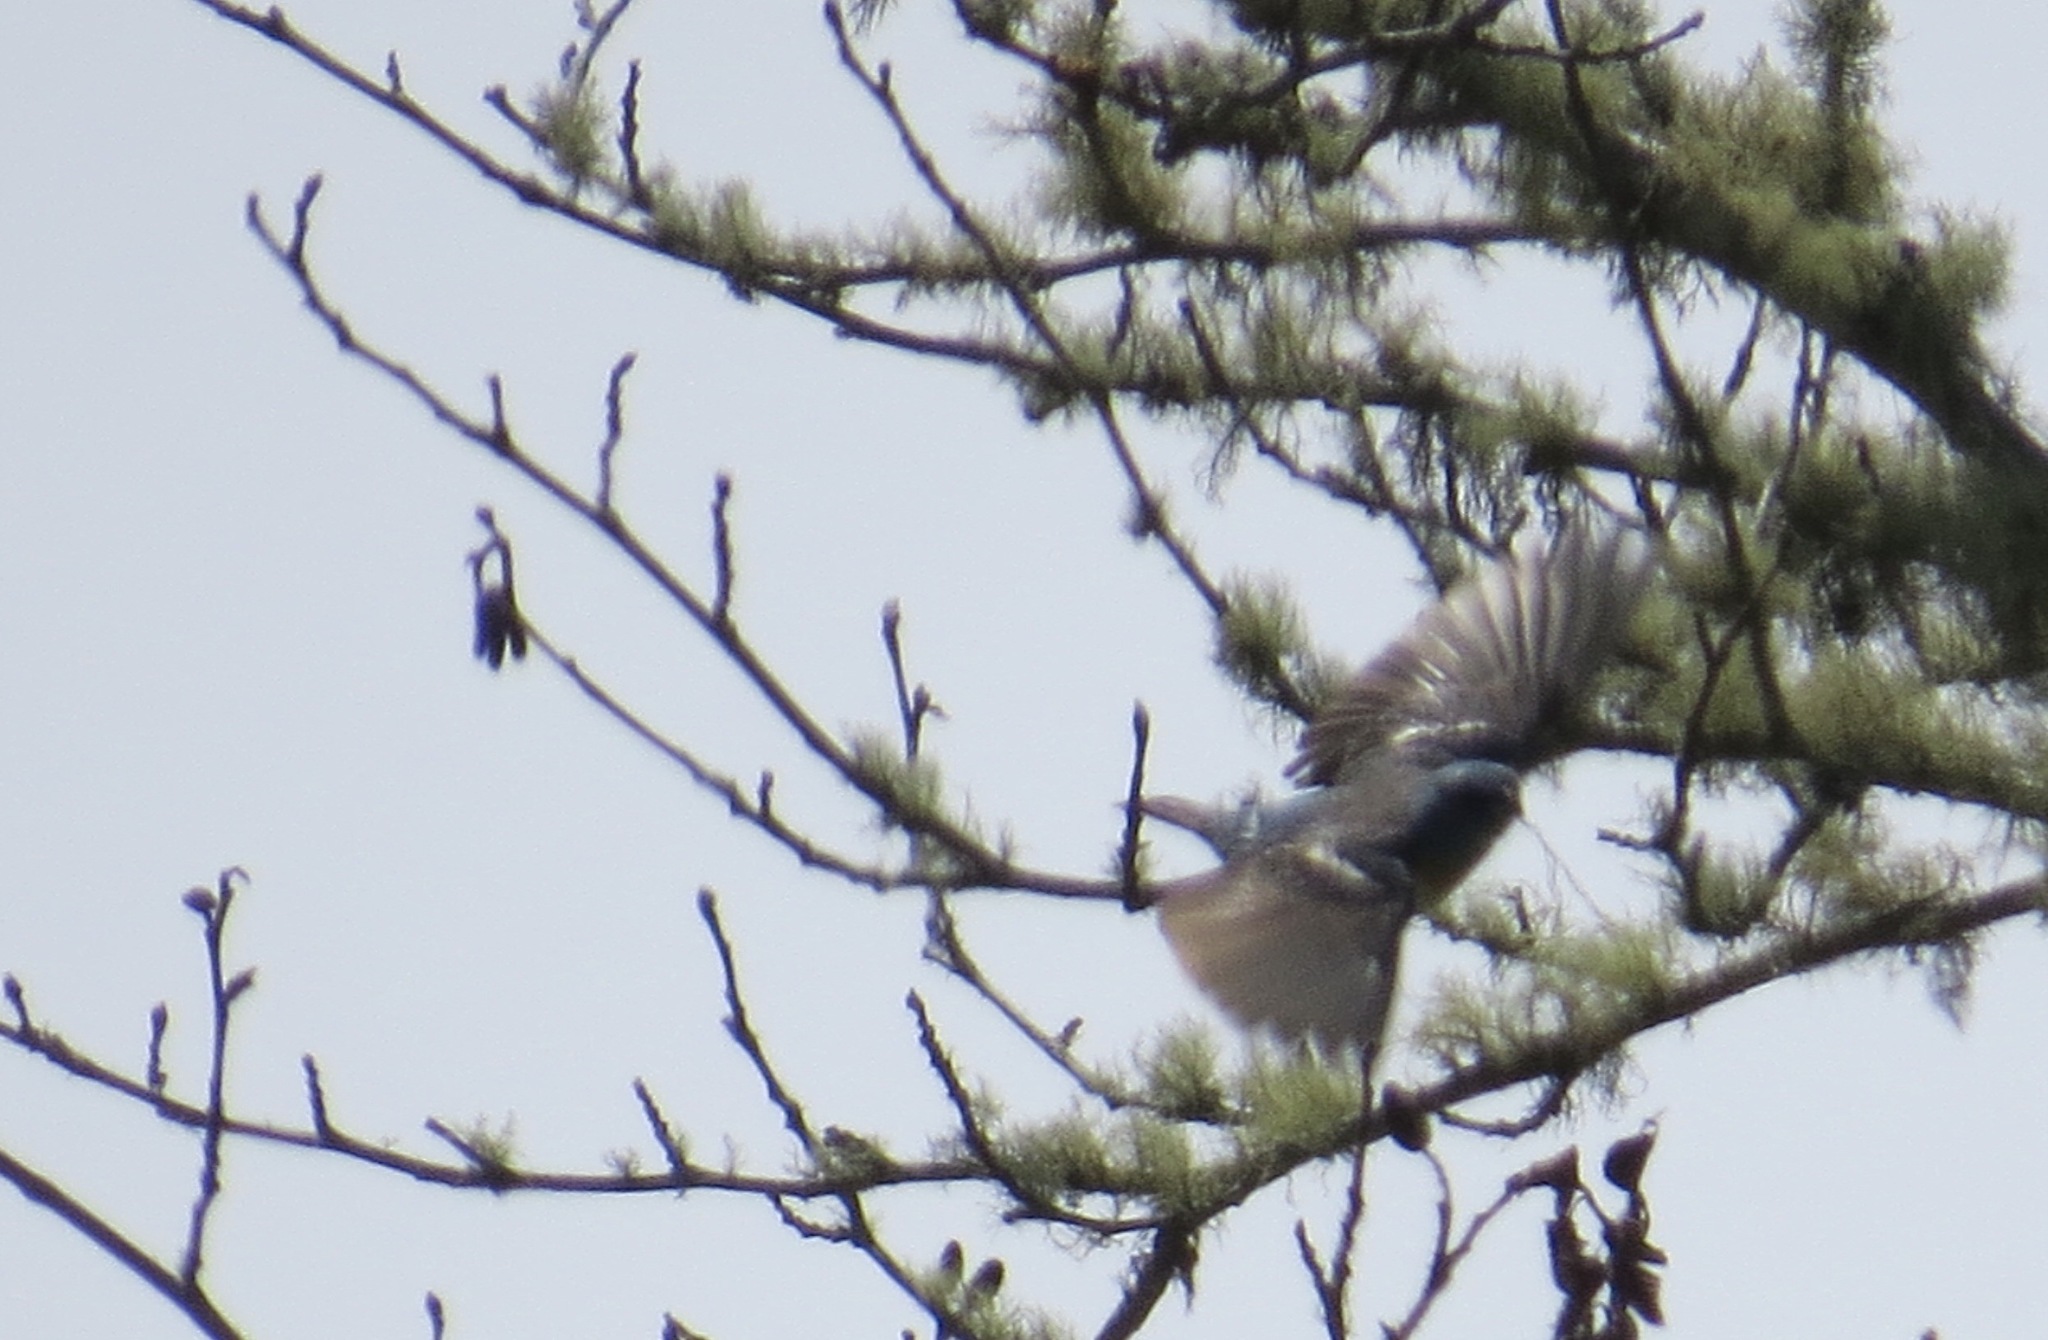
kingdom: Animalia
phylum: Chordata
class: Aves
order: Passeriformes
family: Cardinalidae
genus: Passerina
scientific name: Passerina amoena
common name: Lazuli bunting
